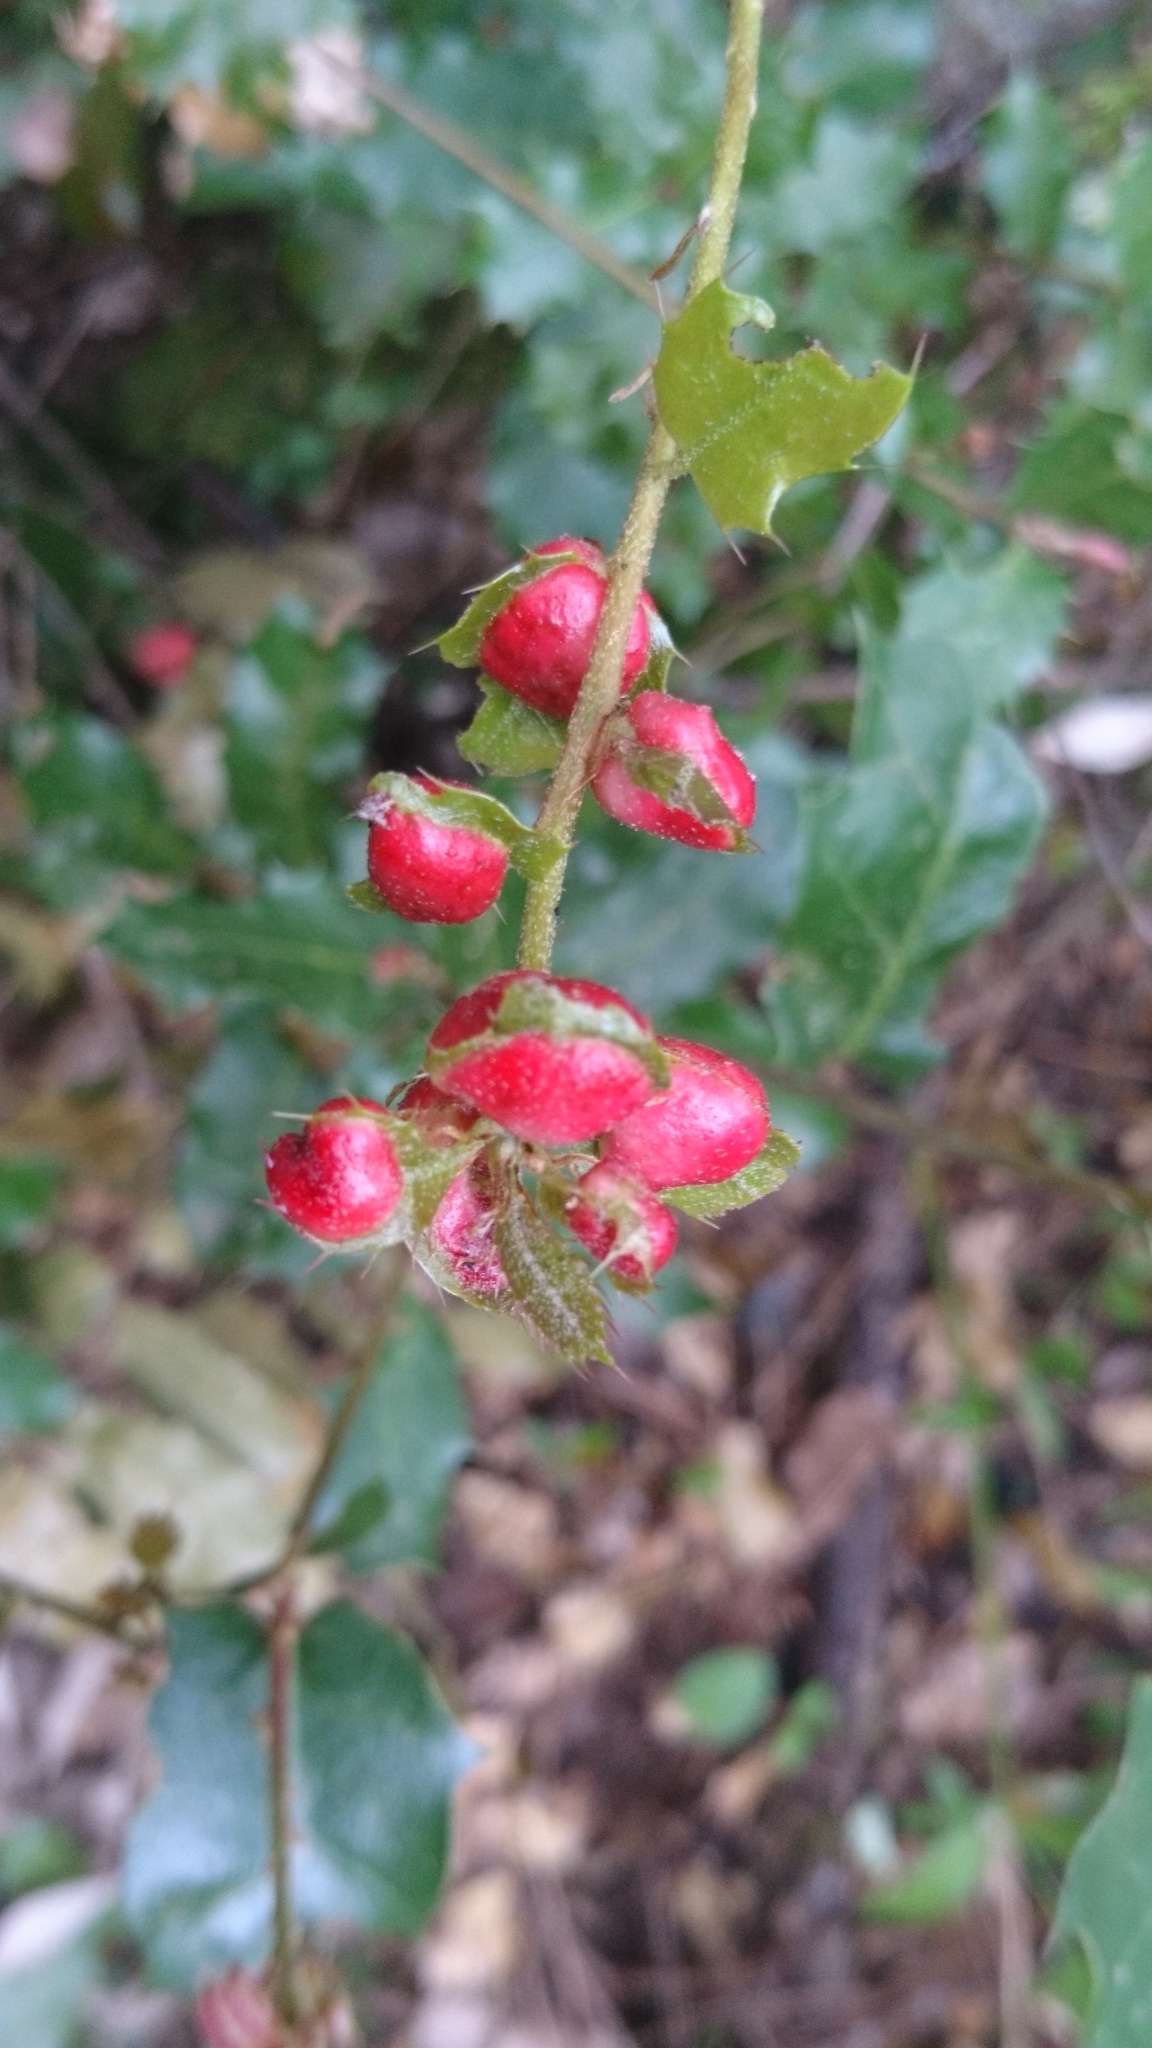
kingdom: Animalia
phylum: Arthropoda
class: Insecta
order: Hymenoptera
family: Cynipidae
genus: Plagiotrochus
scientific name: Plagiotrochus quercusilicis
